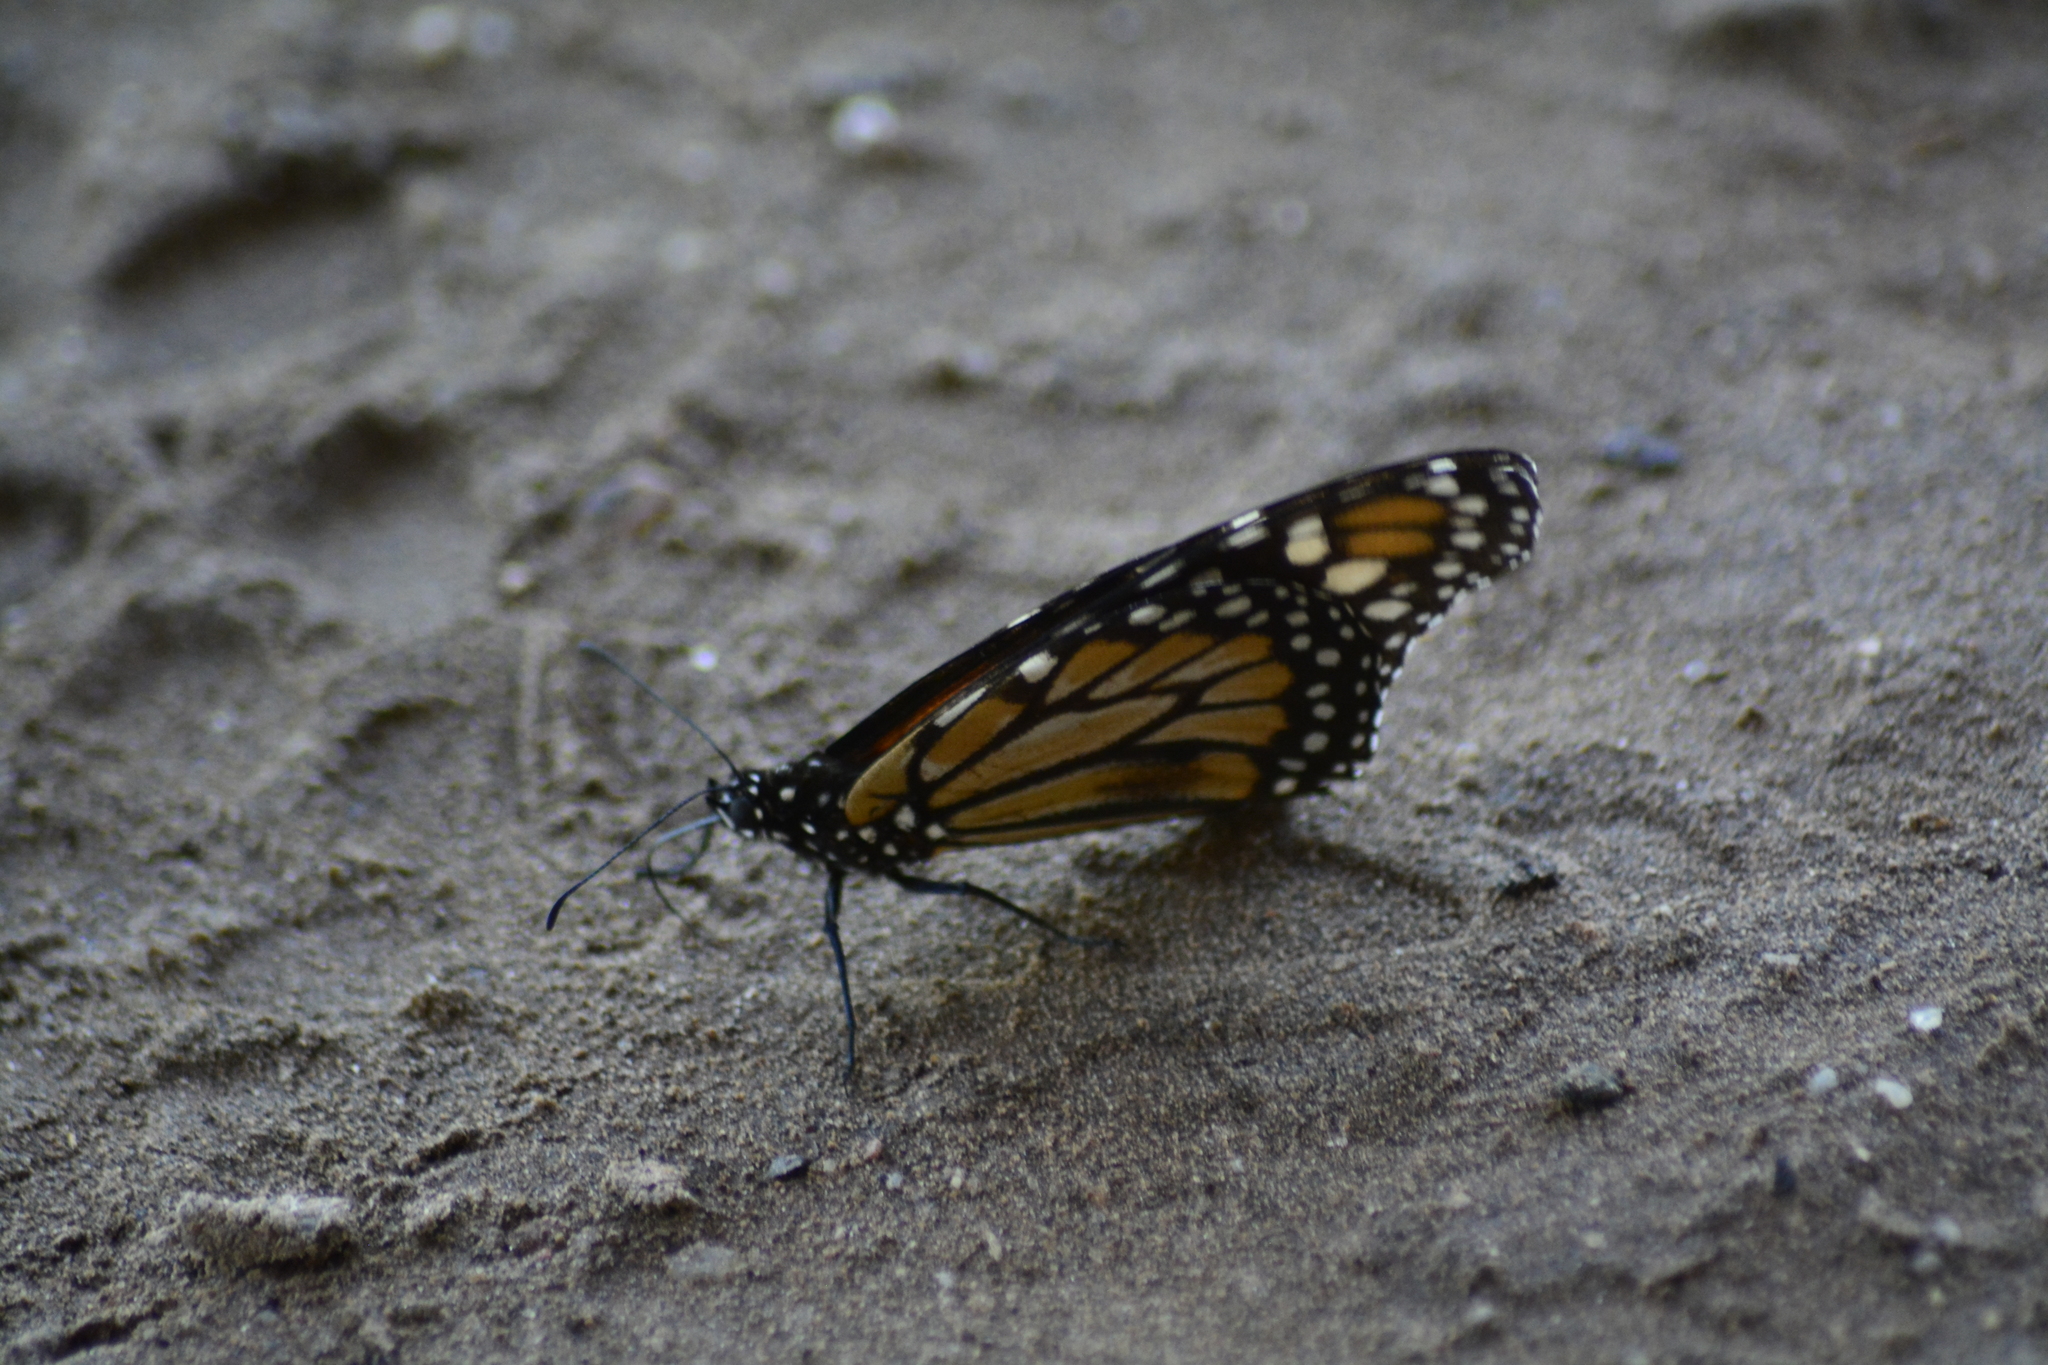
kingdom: Animalia
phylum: Arthropoda
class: Insecta
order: Lepidoptera
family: Nymphalidae
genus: Danaus
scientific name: Danaus erippus
